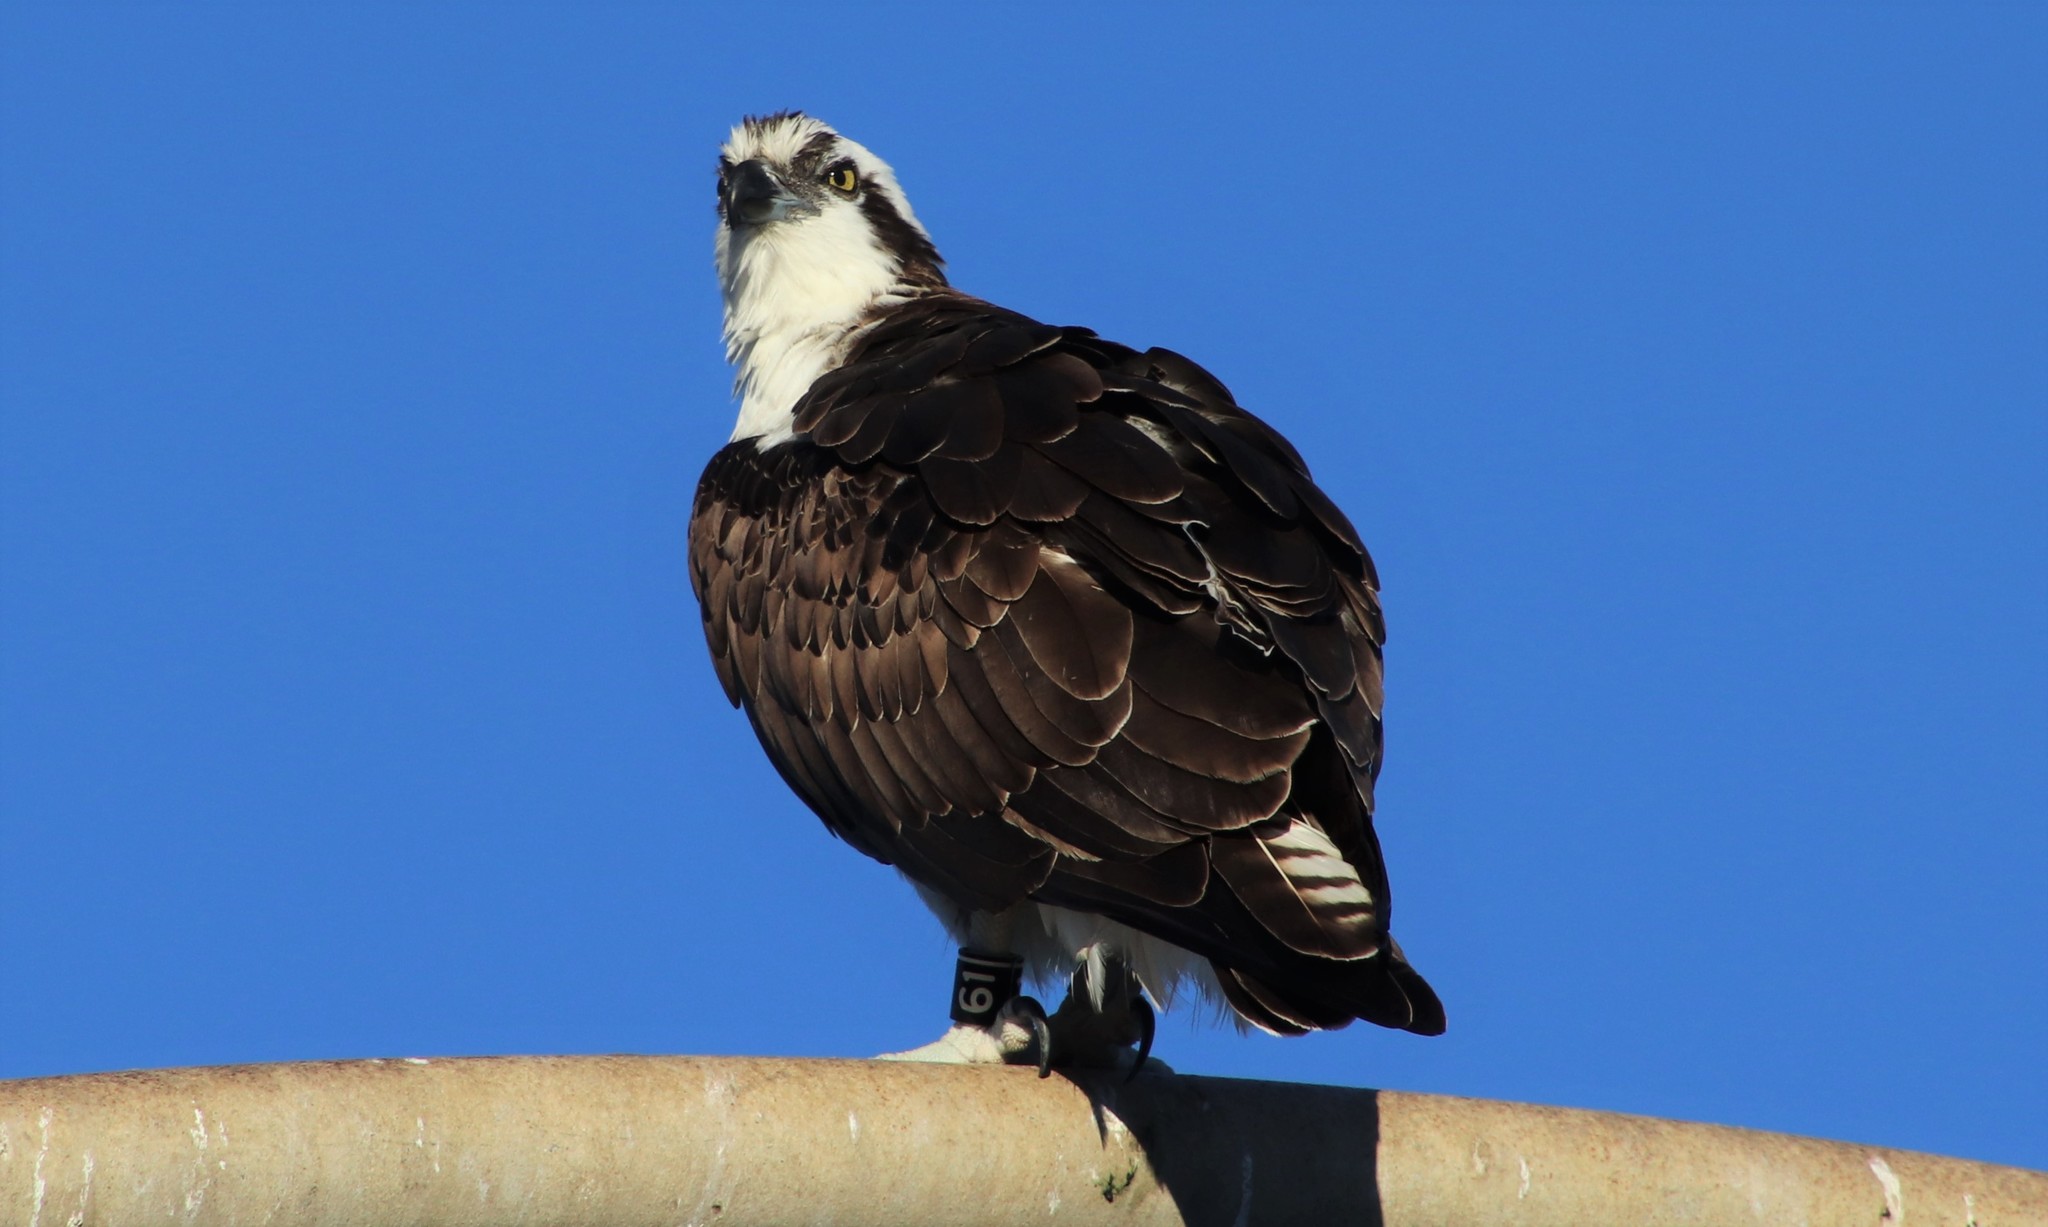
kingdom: Animalia
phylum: Chordata
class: Aves
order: Accipitriformes
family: Pandionidae
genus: Pandion
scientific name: Pandion haliaetus
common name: Osprey
